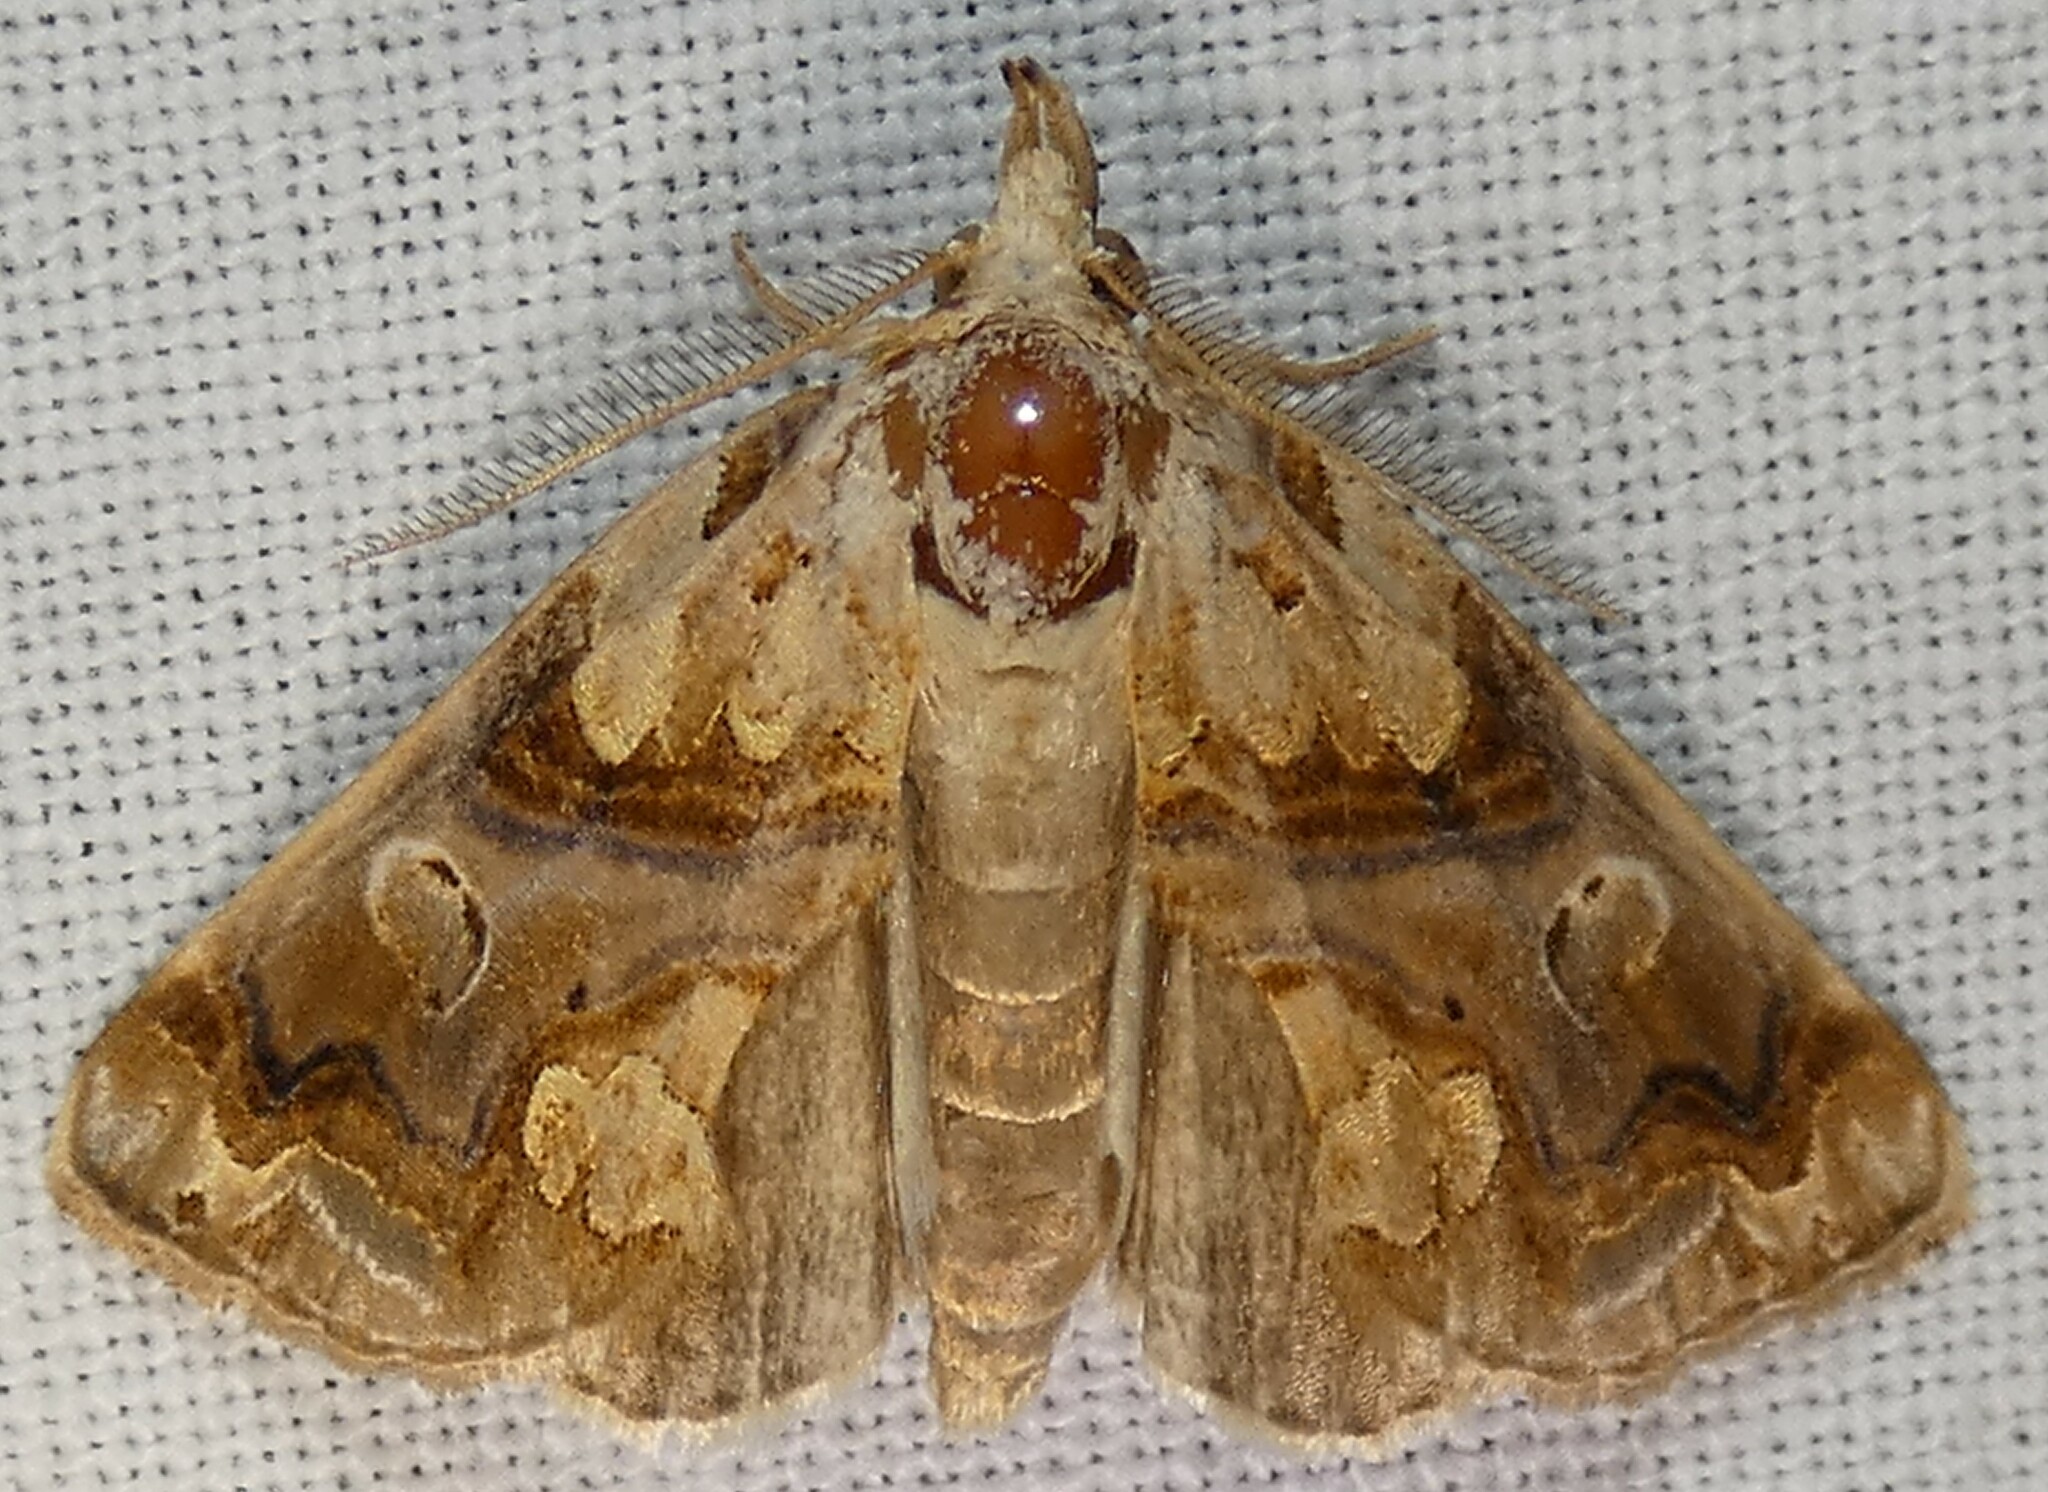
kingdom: Animalia
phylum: Arthropoda
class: Insecta
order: Lepidoptera
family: Erebidae
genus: Plusiodonta
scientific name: Plusiodonta compressipalpis
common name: Moonseed moth
